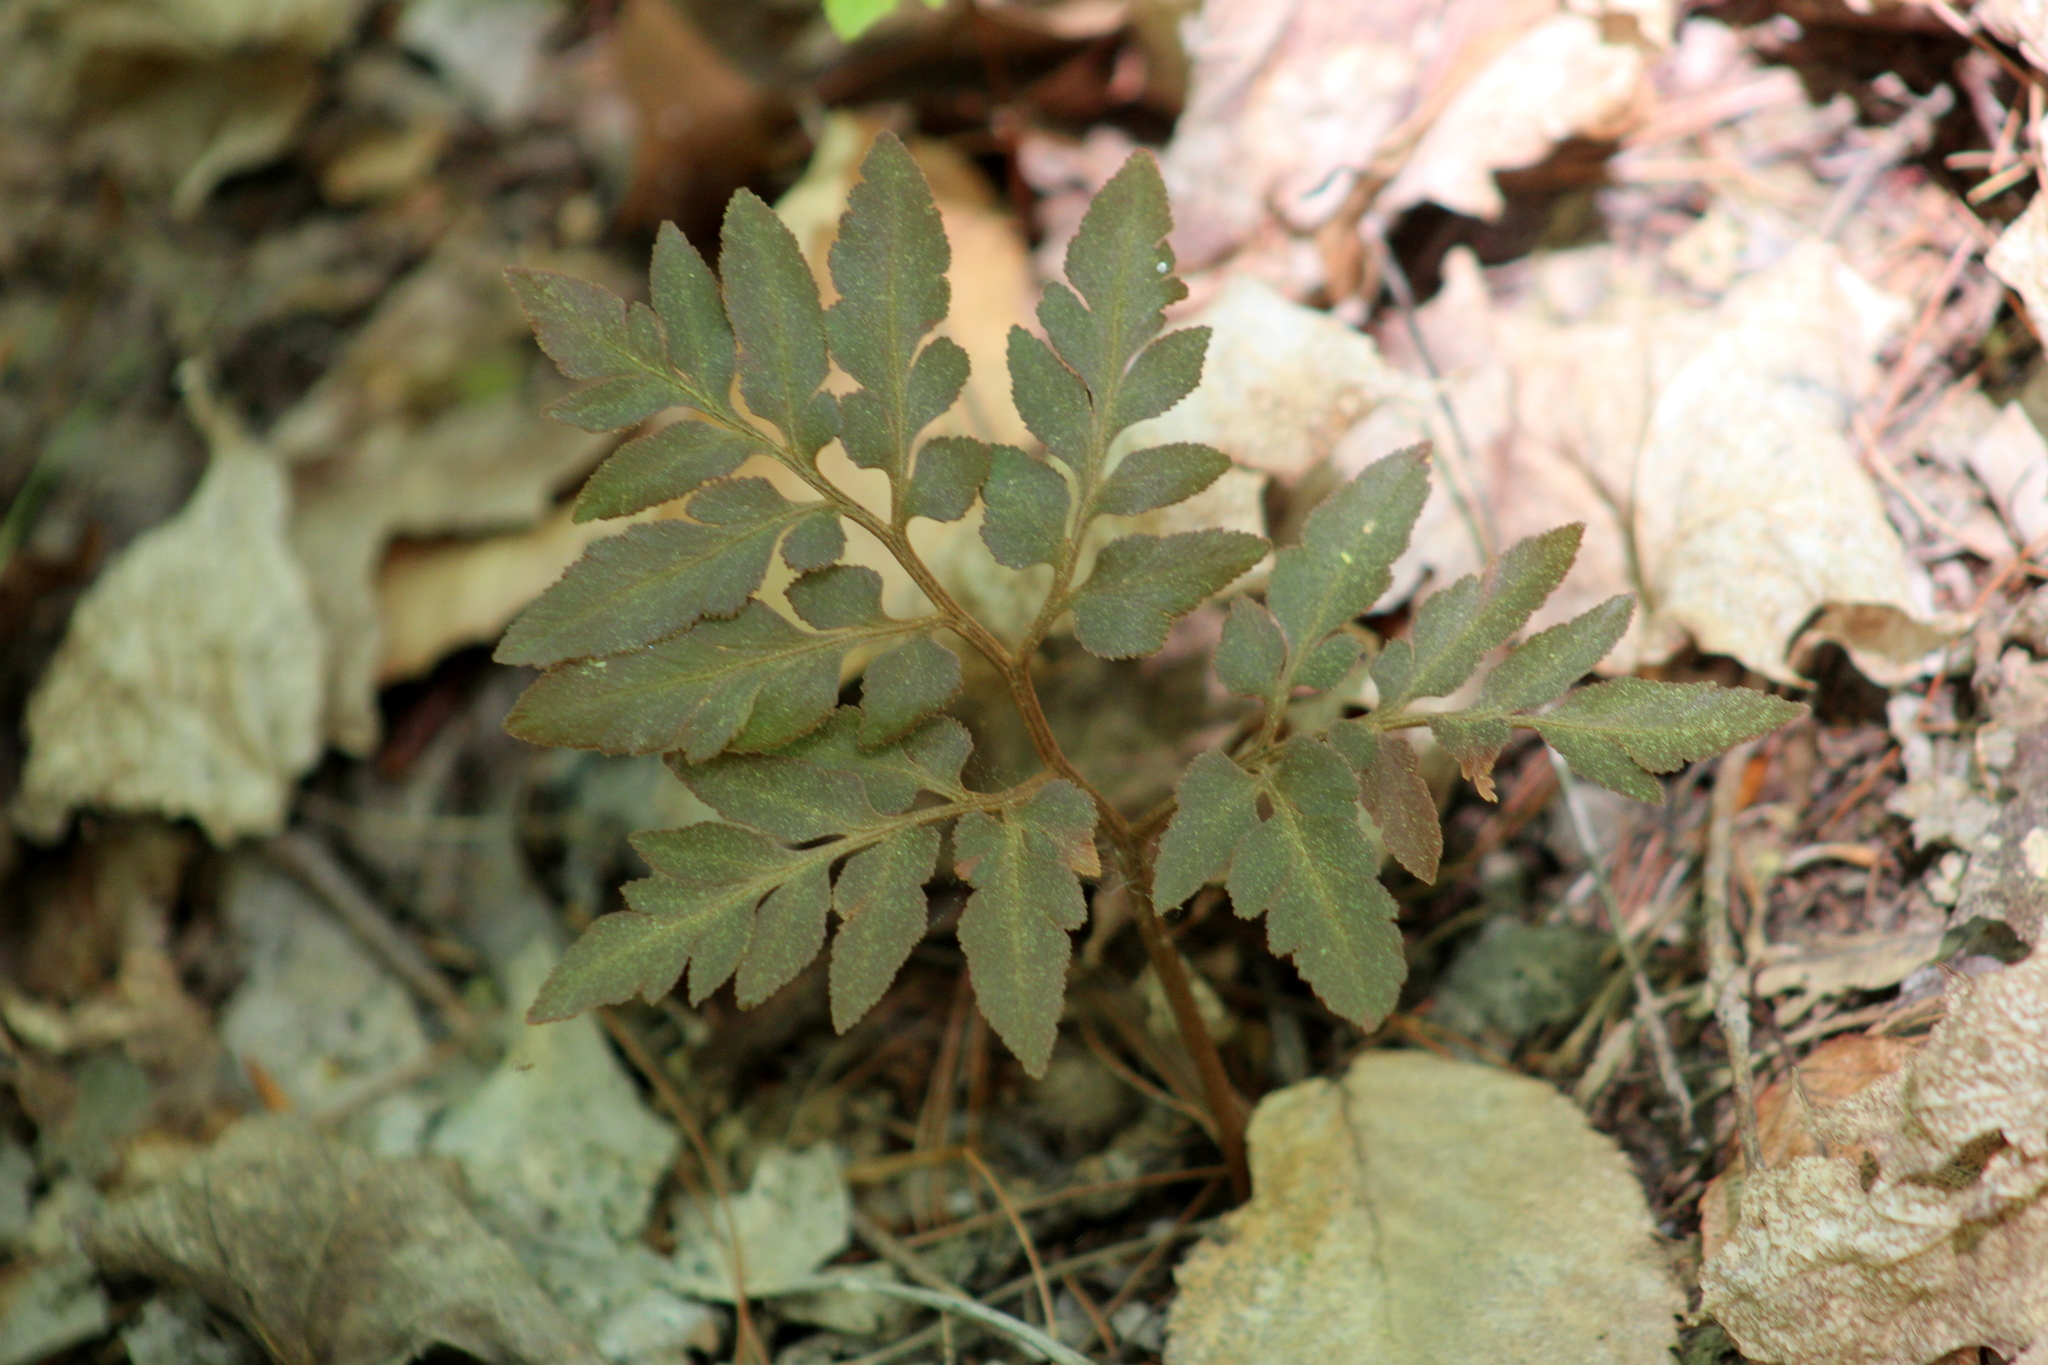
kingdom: Plantae
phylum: Tracheophyta
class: Polypodiopsida
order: Ophioglossales
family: Ophioglossaceae
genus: Sceptridium
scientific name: Sceptridium dissectum
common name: Cut-leaved grapefern
